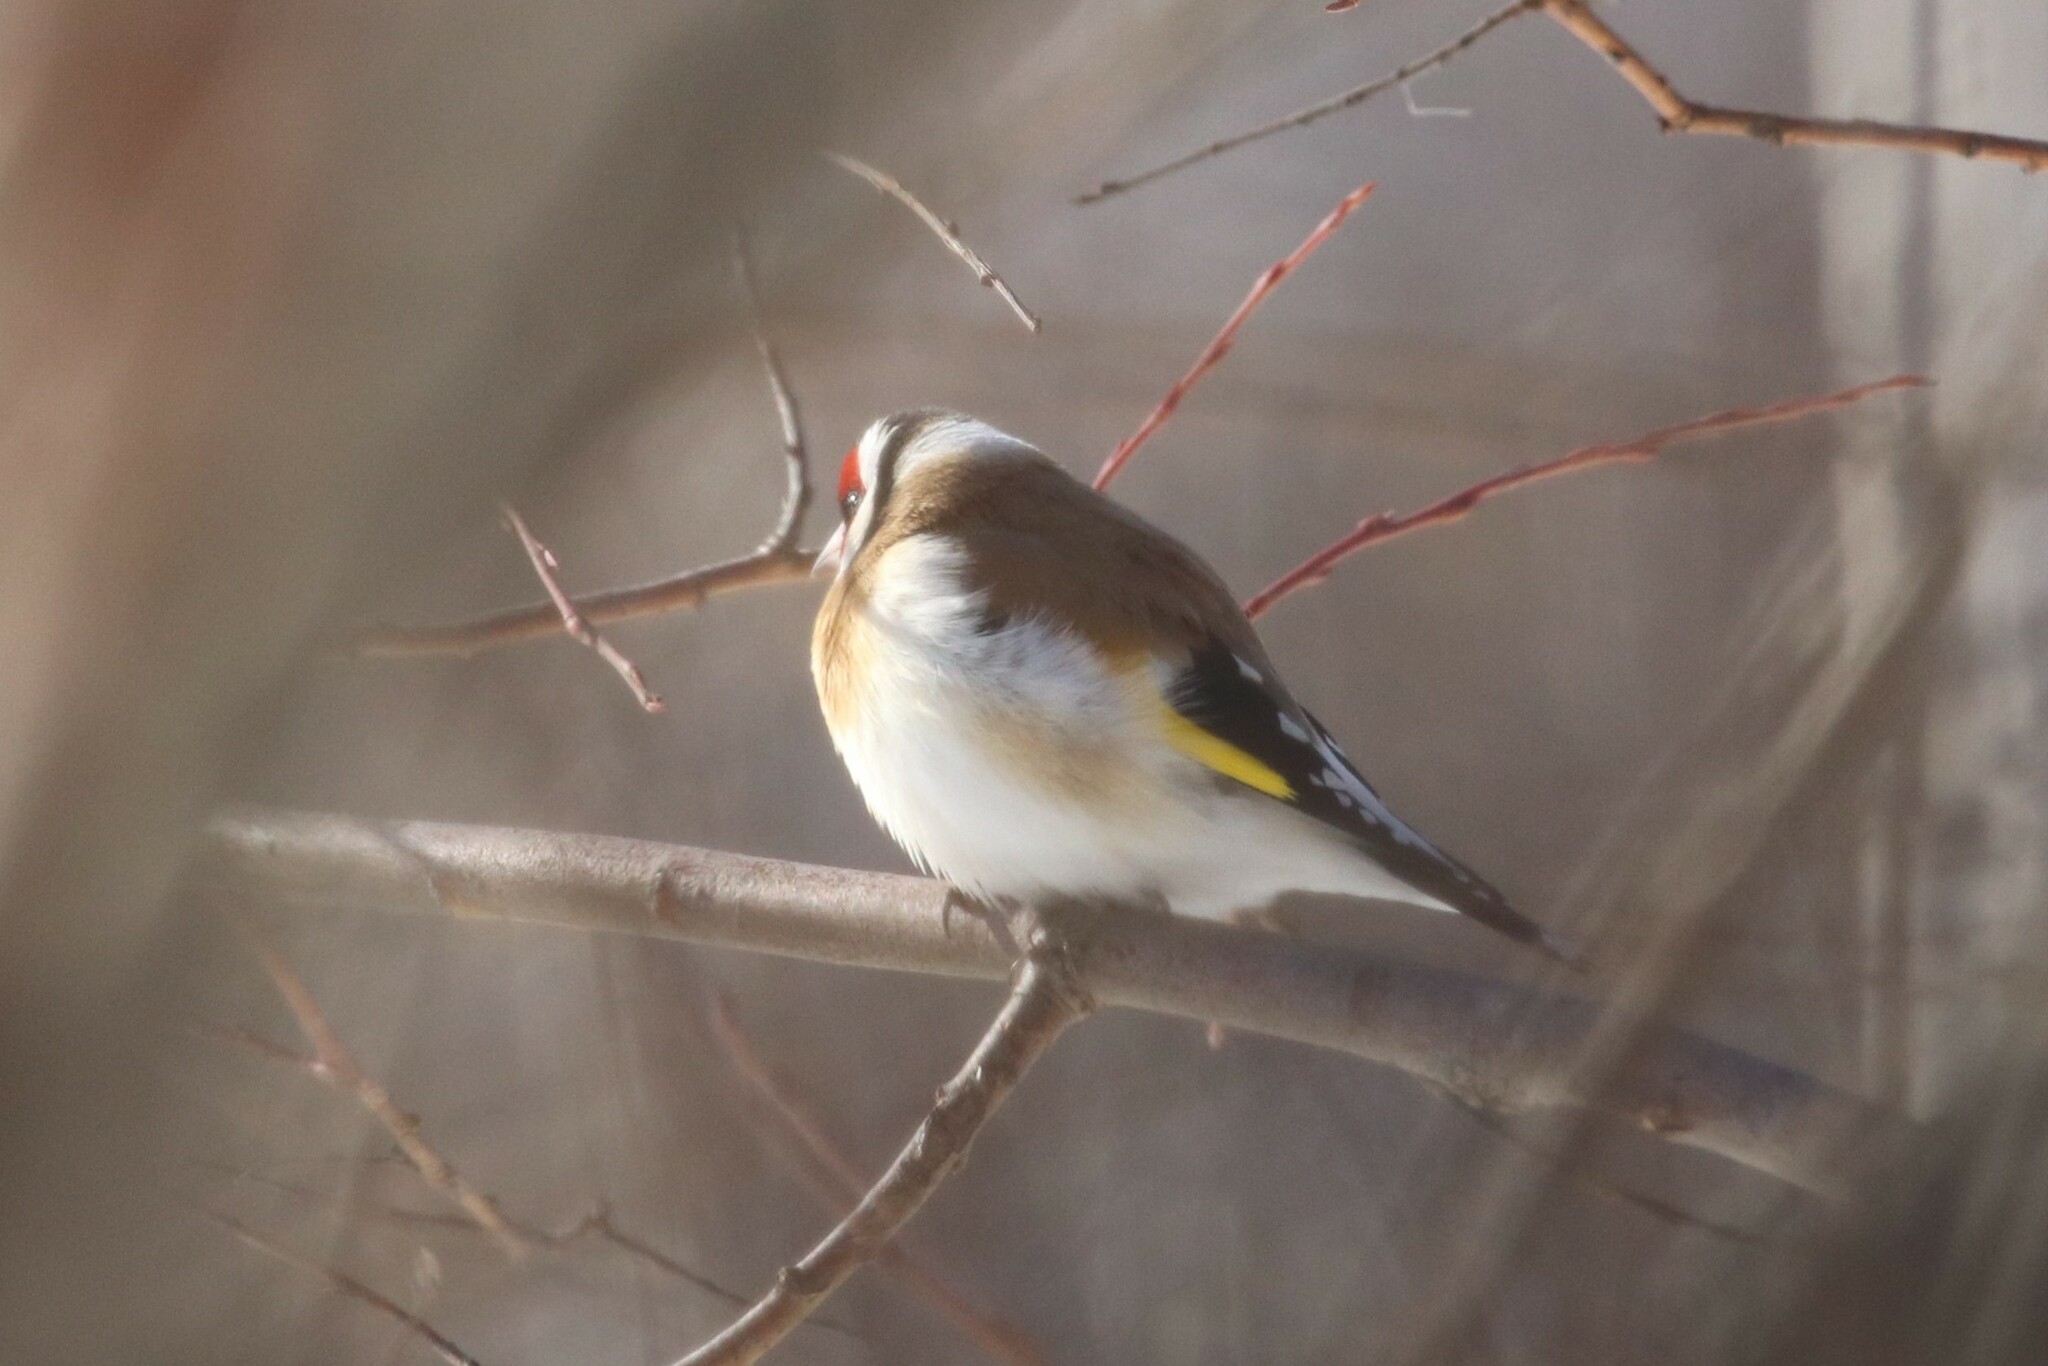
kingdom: Animalia
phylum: Chordata
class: Aves
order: Passeriformes
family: Fringillidae
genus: Carduelis
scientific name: Carduelis carduelis
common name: European goldfinch
